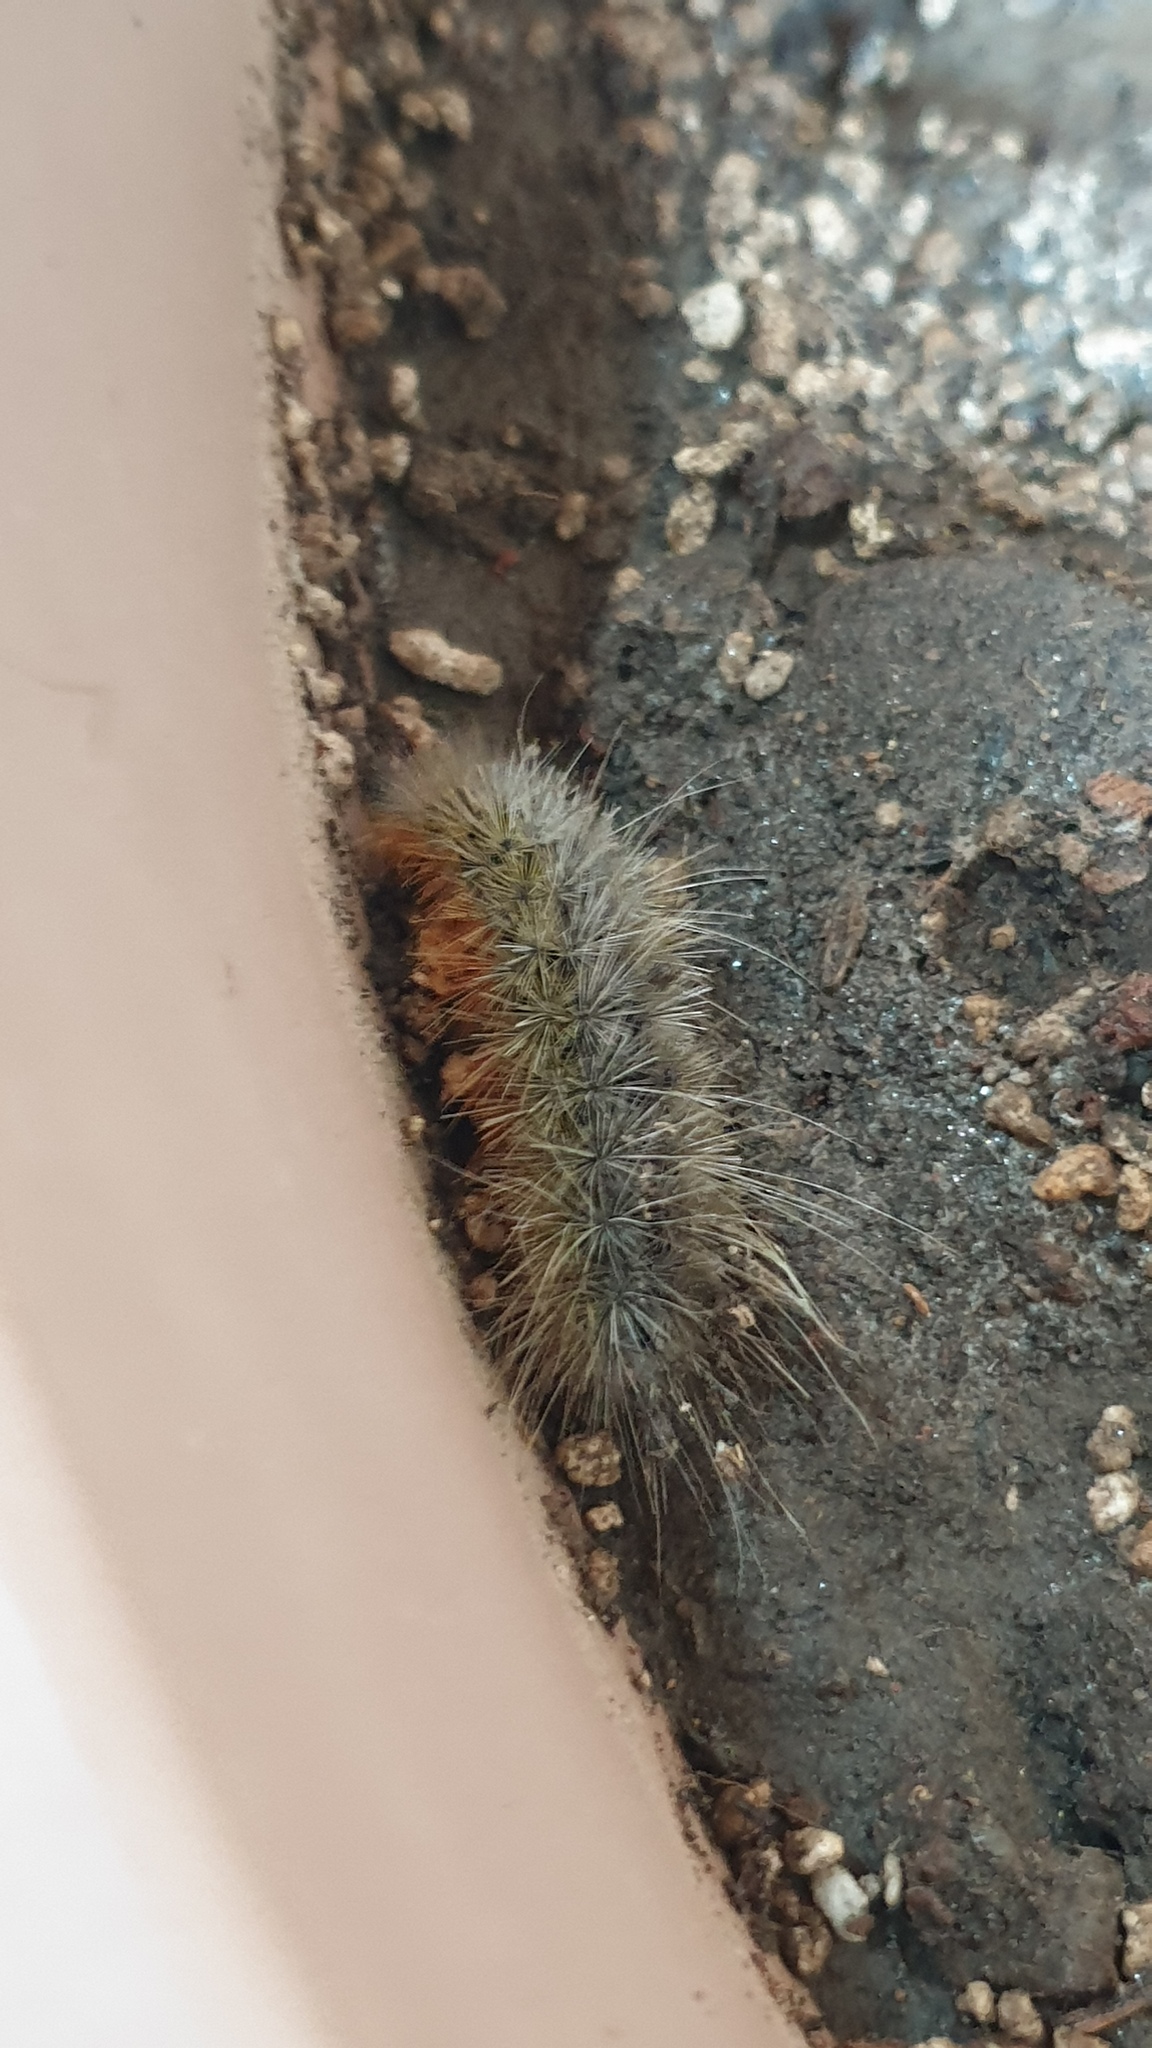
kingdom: Animalia
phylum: Arthropoda
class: Insecta
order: Lepidoptera
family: Erebidae
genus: Eucharia
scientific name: Eucharia festiva
